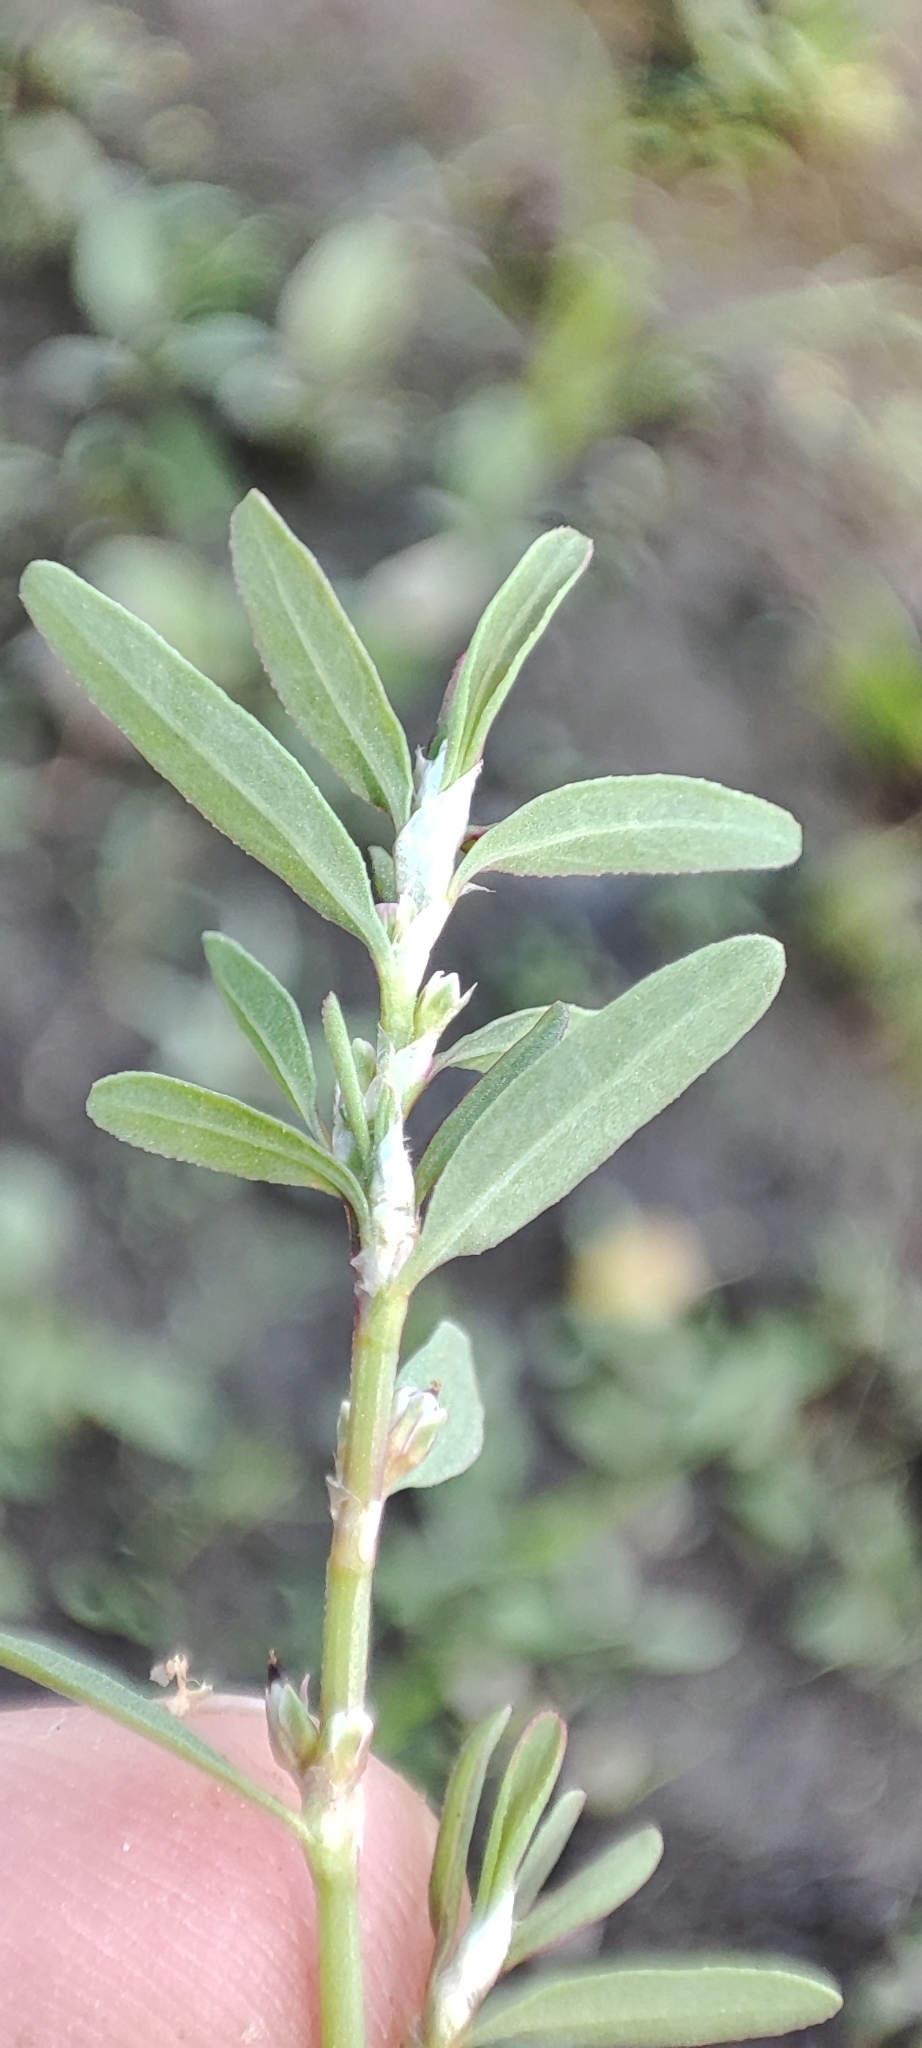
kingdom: Plantae
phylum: Tracheophyta
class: Magnoliopsida
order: Caryophyllales
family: Polygonaceae
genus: Polygonum
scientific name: Polygonum volchovense
